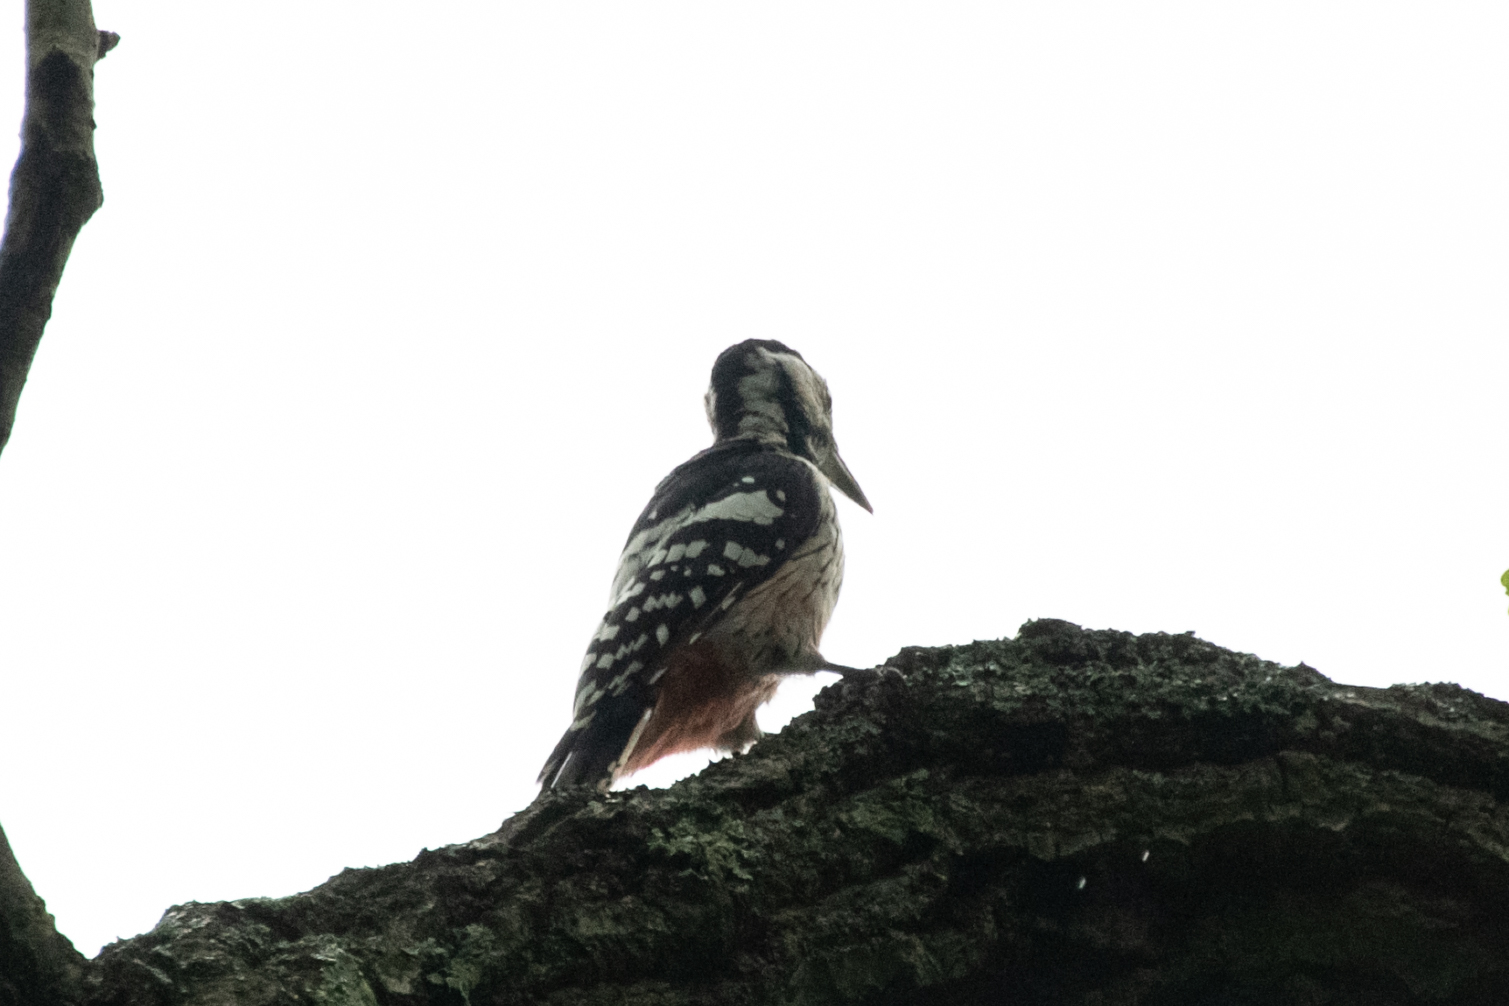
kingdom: Animalia
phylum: Chordata
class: Aves
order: Piciformes
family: Picidae
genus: Dendrocopos
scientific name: Dendrocopos leucotos
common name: White-backed woodpecker
